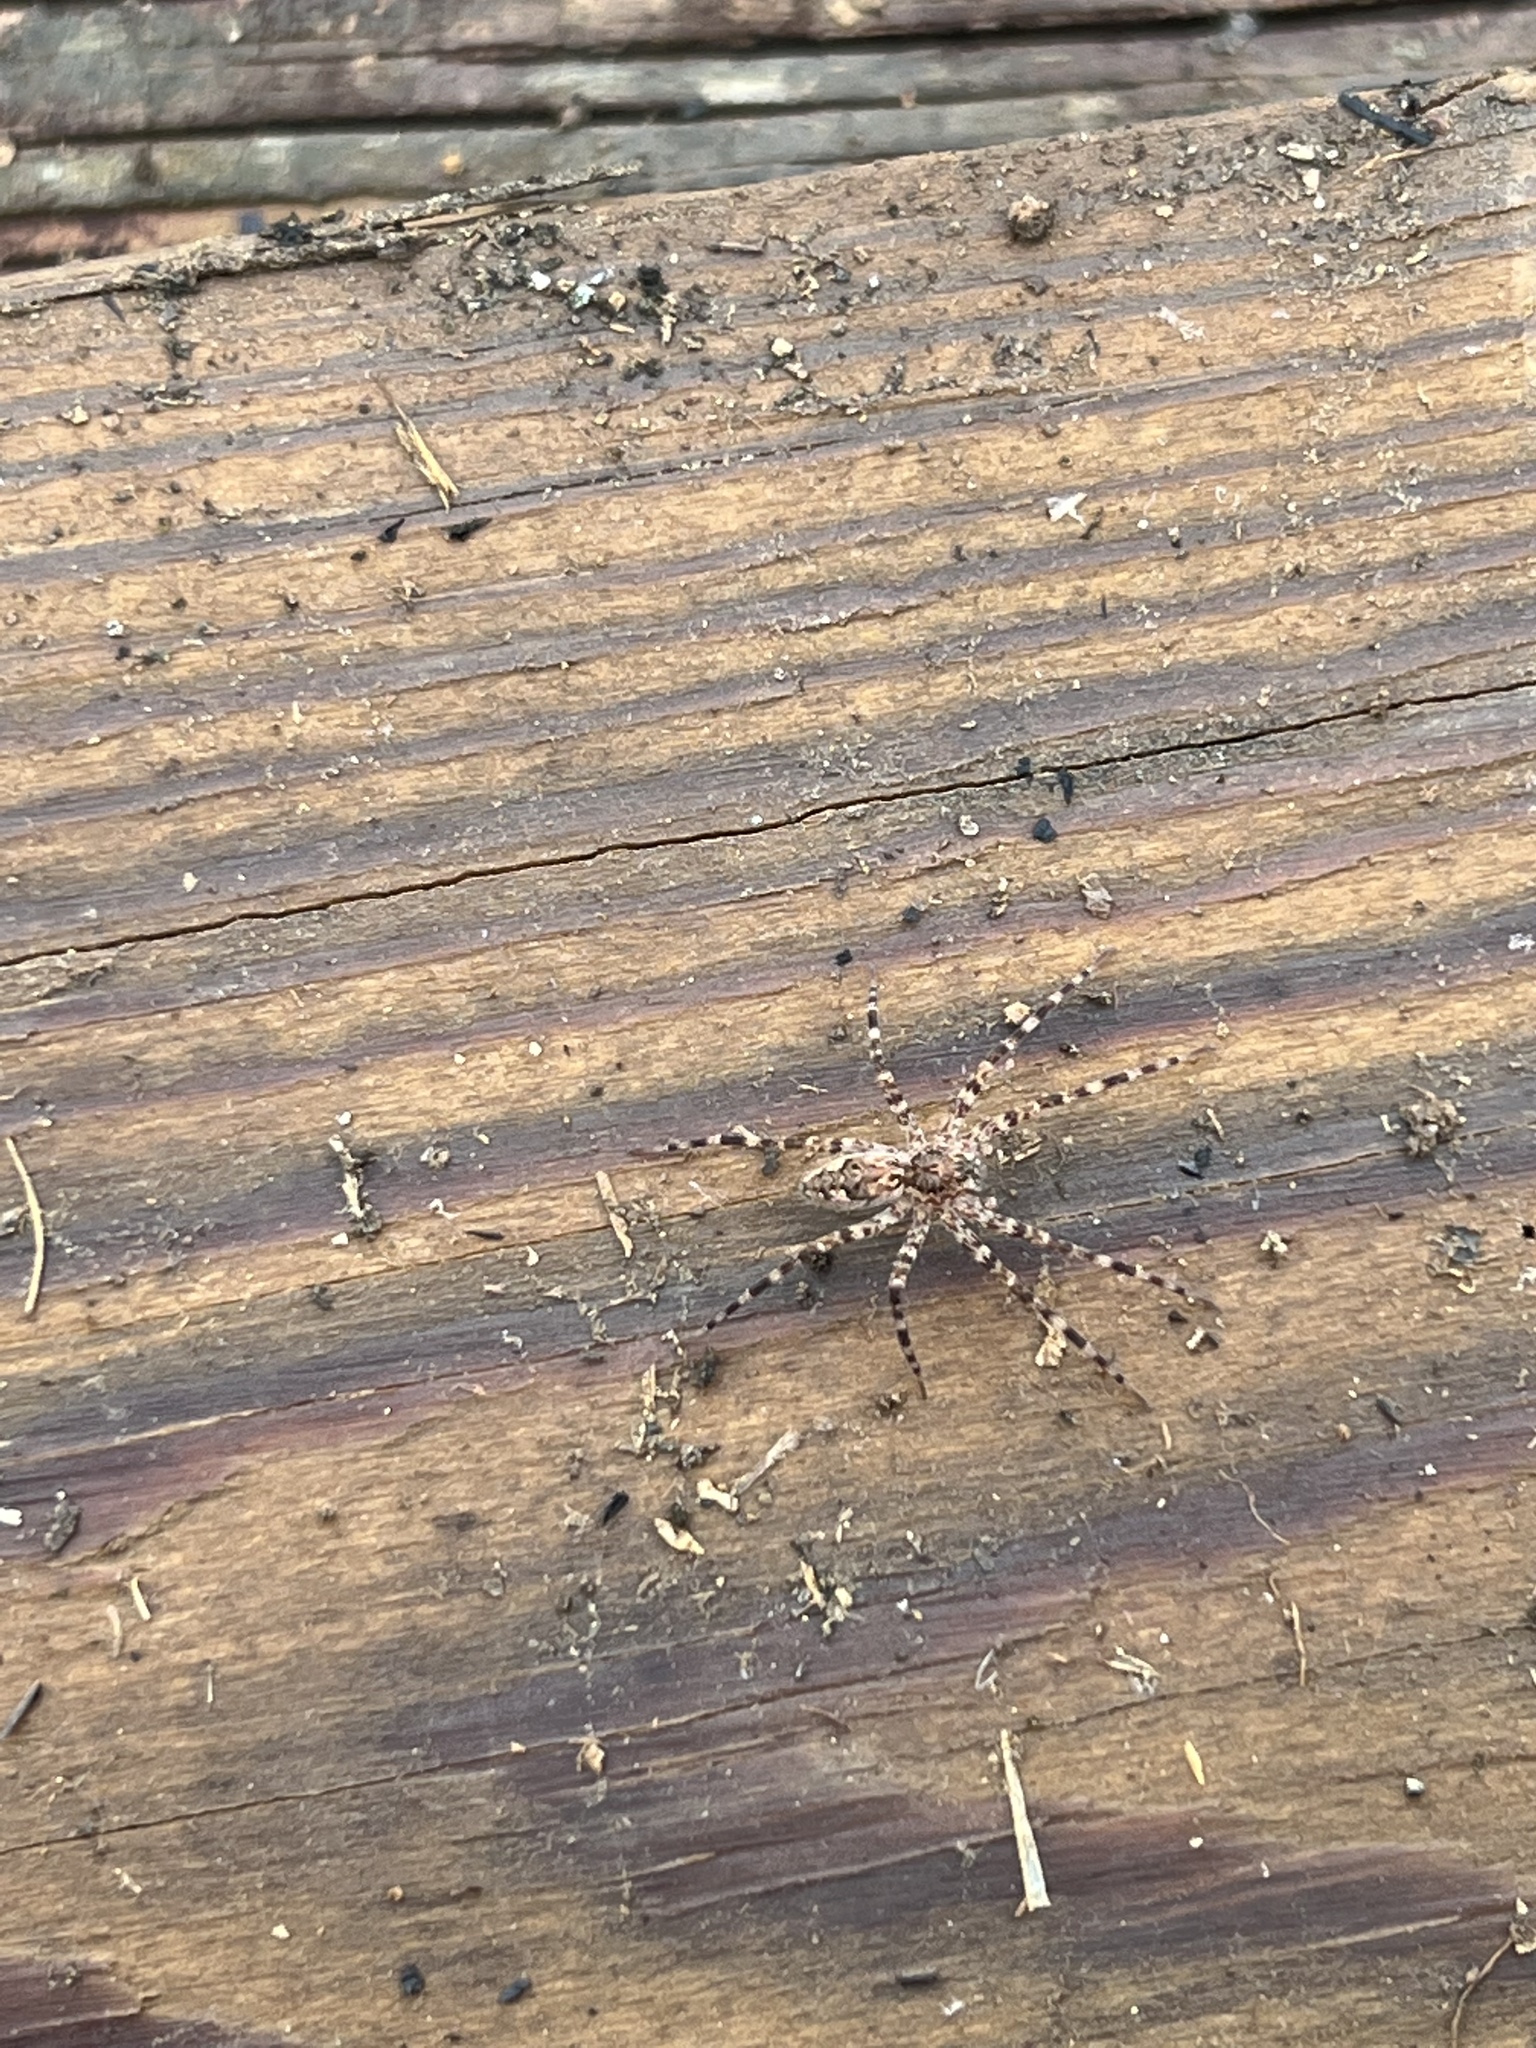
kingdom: Animalia
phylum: Arthropoda
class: Arachnida
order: Araneae
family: Pisauridae
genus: Dolomedes
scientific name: Dolomedes tenebrosus
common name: Dark fishing spider
